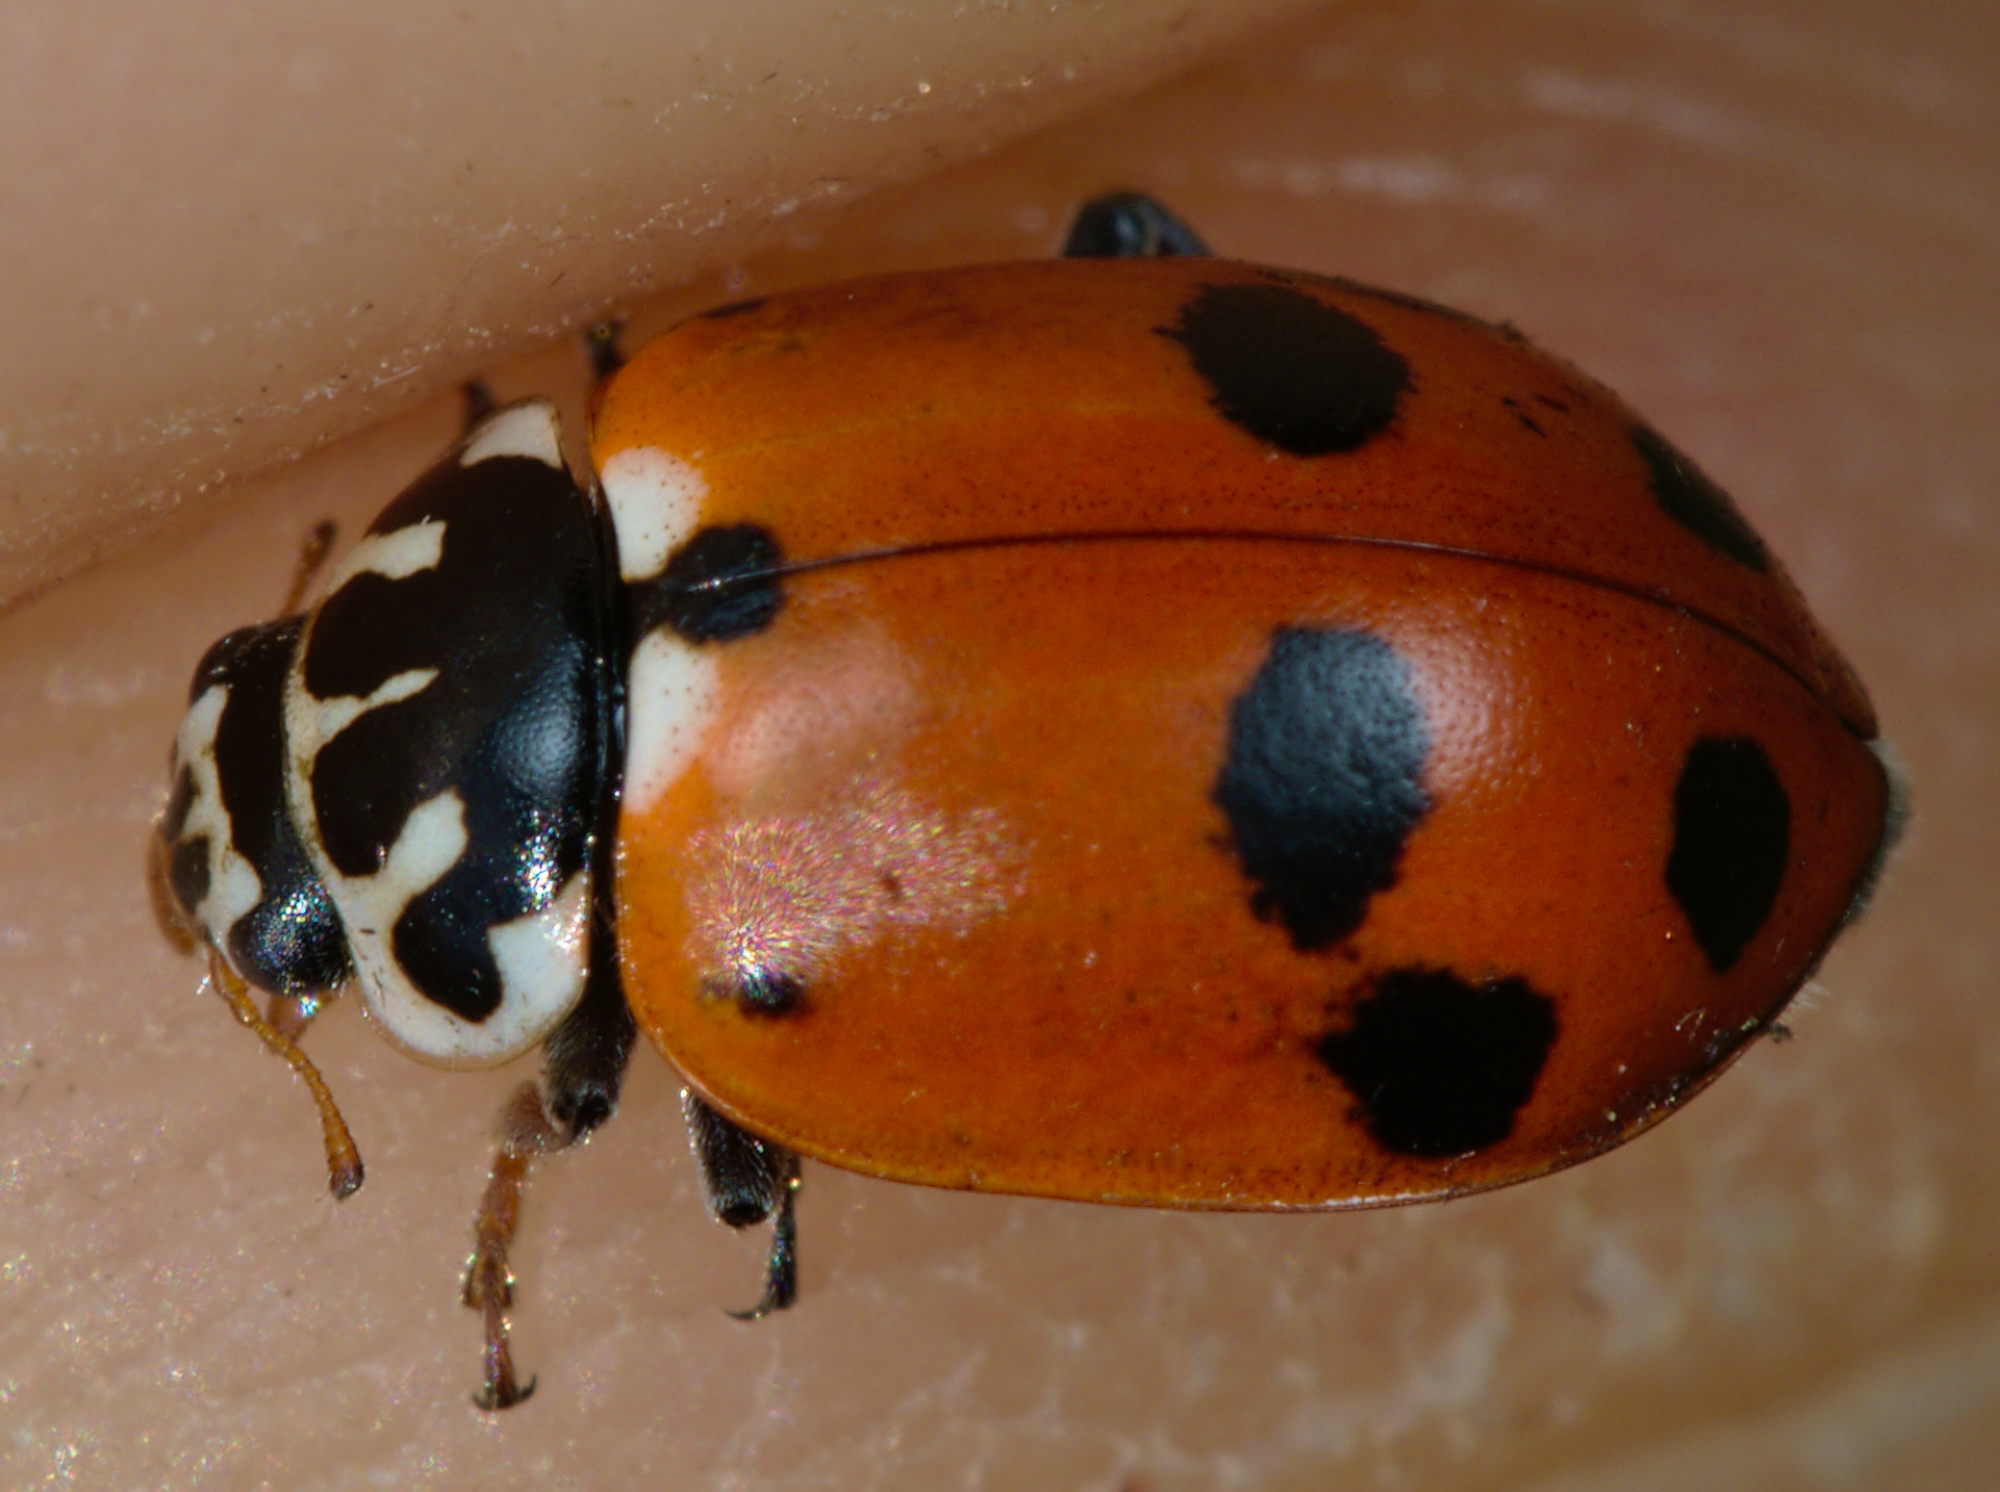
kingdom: Animalia
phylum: Arthropoda
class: Insecta
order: Coleoptera
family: Coccinellidae
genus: Hippodamia
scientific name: Hippodamia variegata
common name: Ladybird beetle
